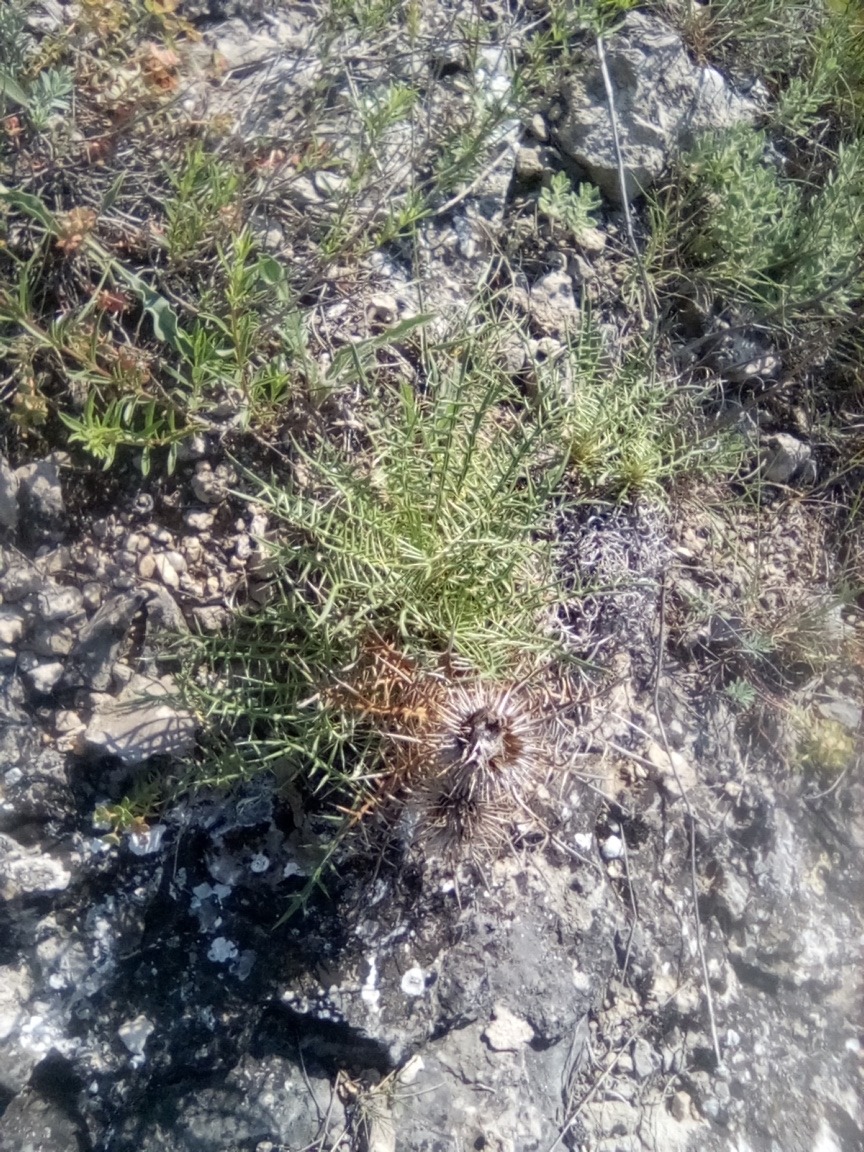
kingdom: Plantae
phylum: Tracheophyta
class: Magnoliopsida
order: Asterales
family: Asteraceae
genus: Ptilostemon
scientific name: Ptilostemon echinocephalus
